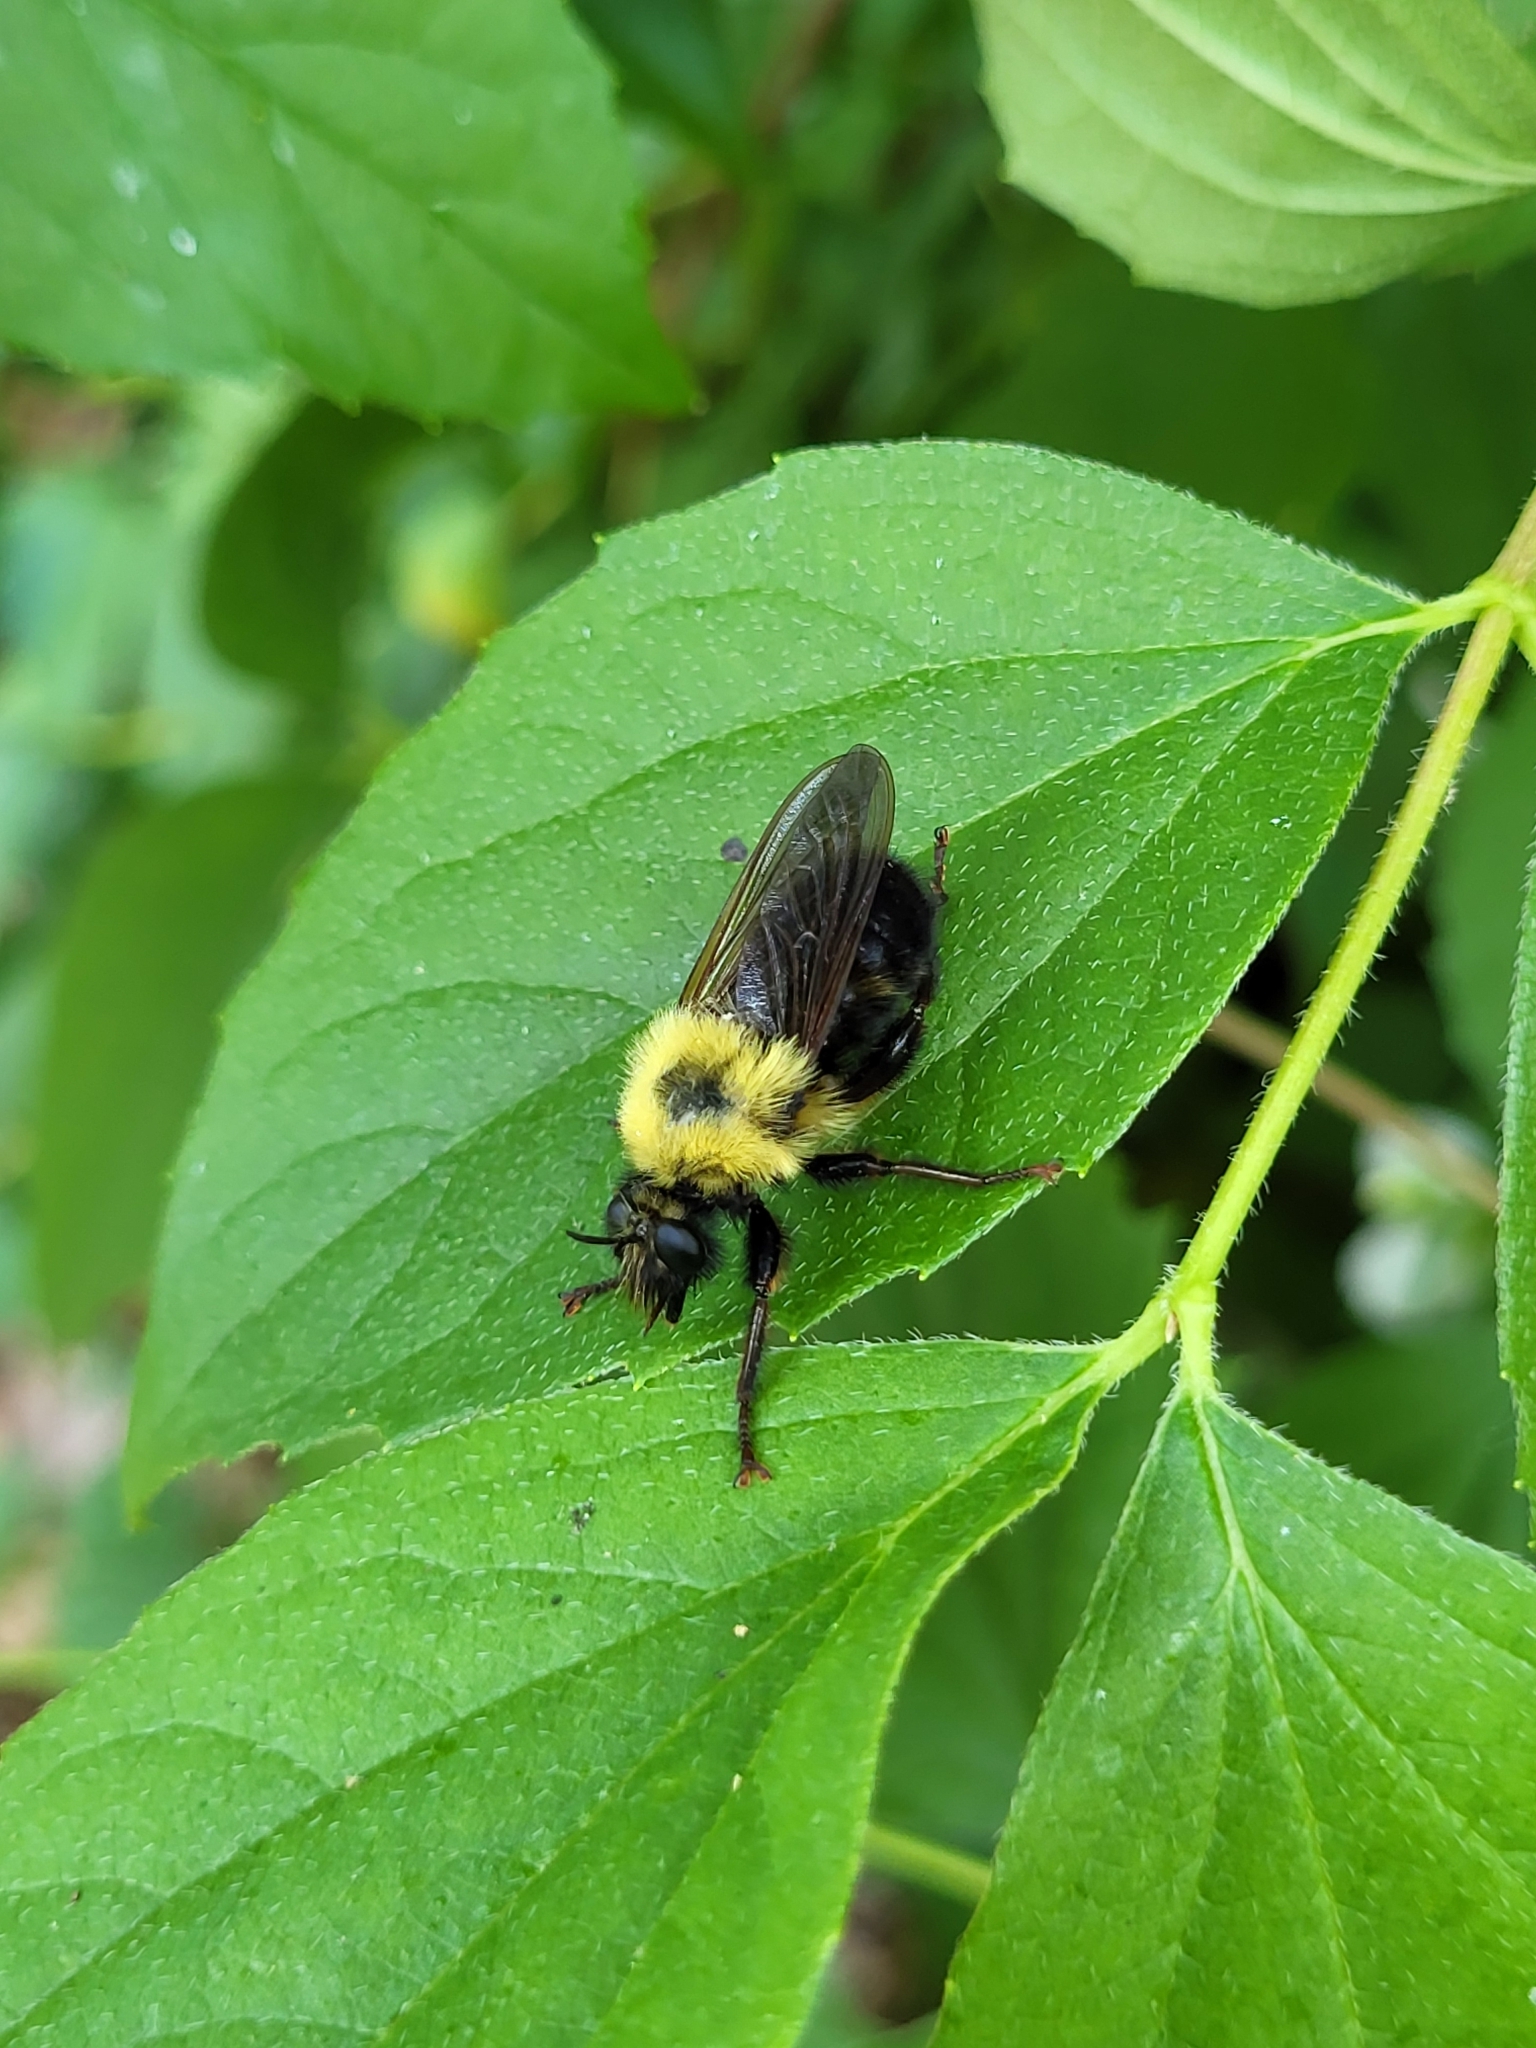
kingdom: Animalia
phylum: Arthropoda
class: Insecta
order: Diptera
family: Asilidae
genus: Laphria
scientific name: Laphria thoracica
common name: Bumble bee mimic robber fly
